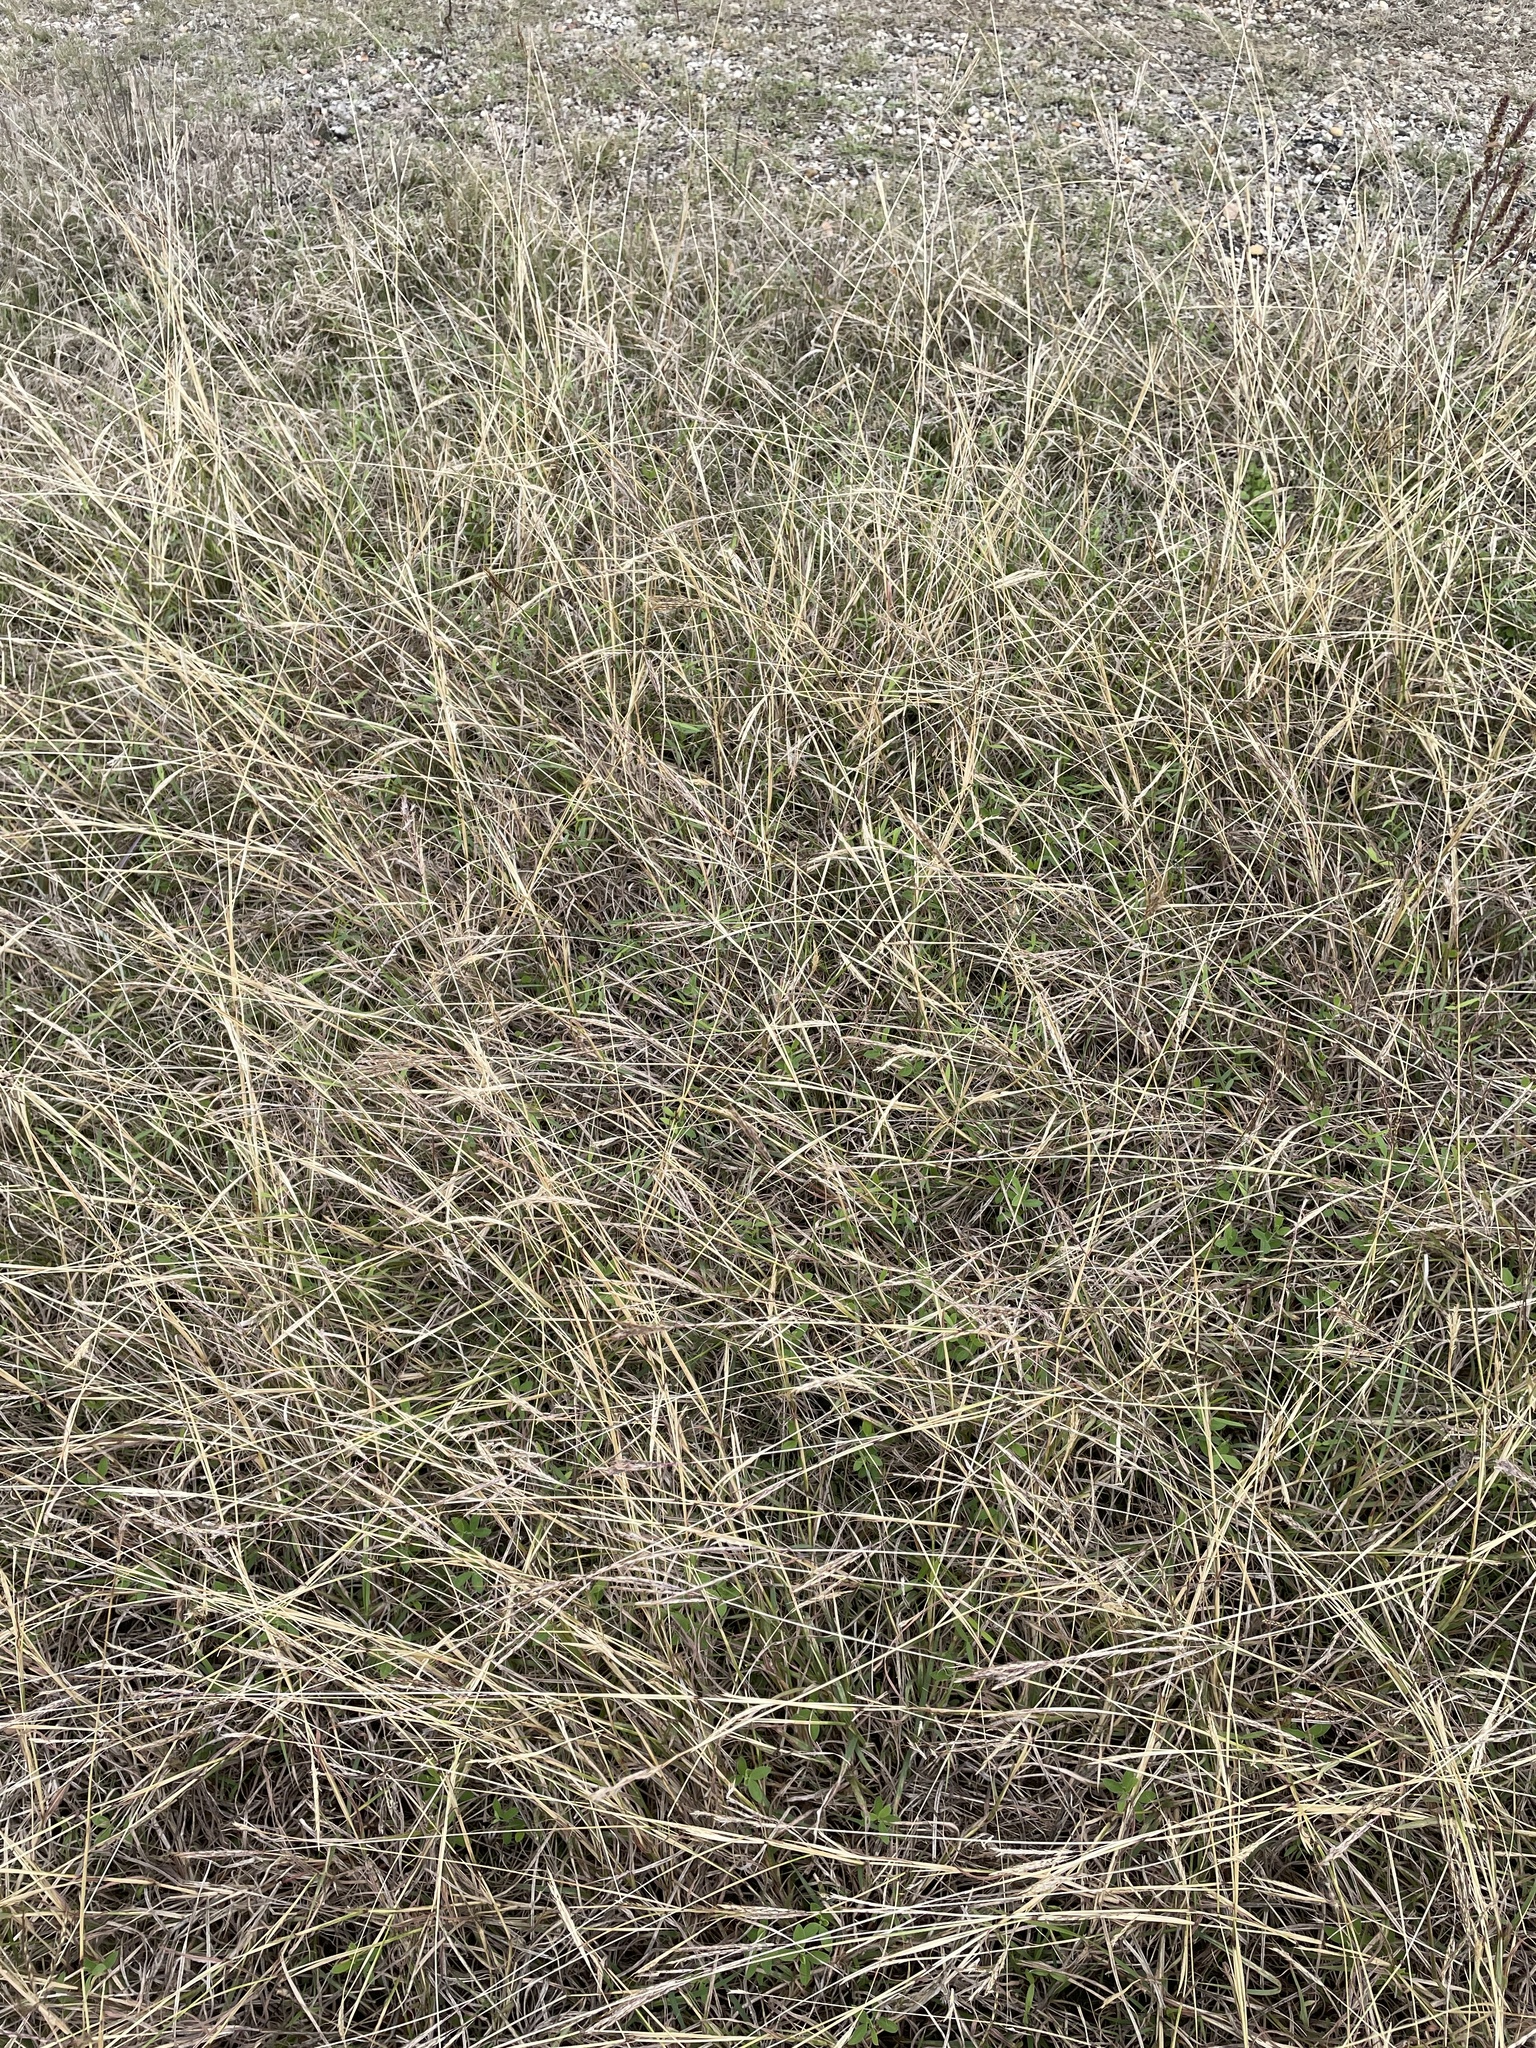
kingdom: Plantae
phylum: Tracheophyta
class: Liliopsida
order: Poales
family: Poaceae
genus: Bothriochloa
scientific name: Bothriochloa ischaemum
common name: Yellow bluestem
